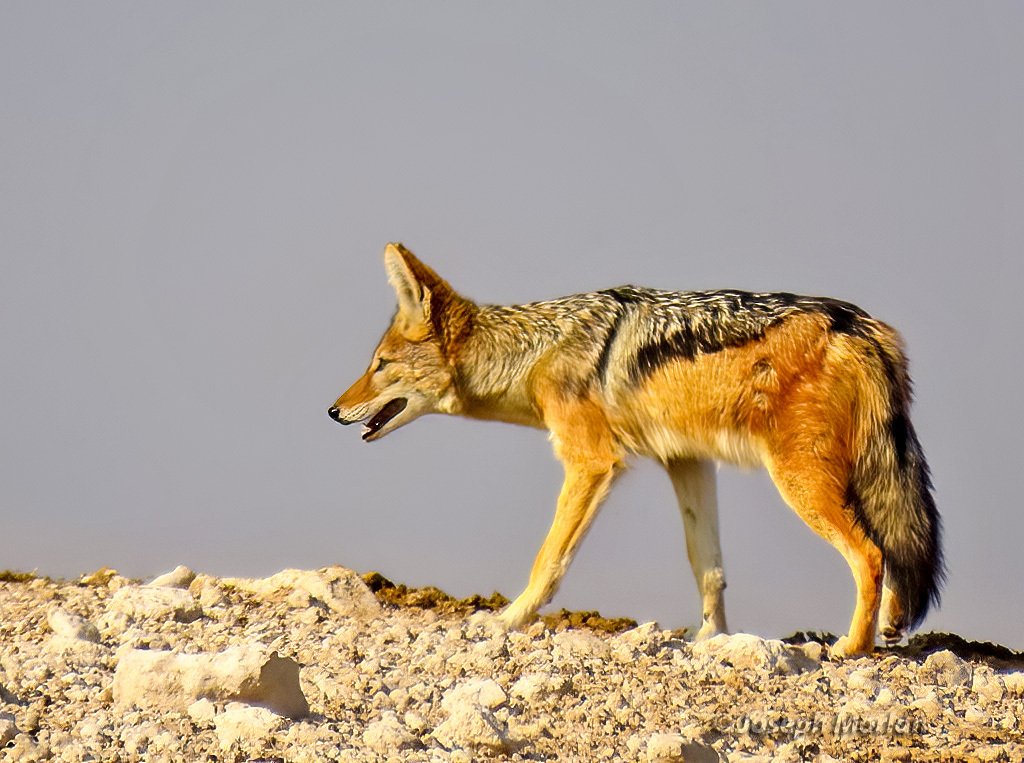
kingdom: Animalia
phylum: Chordata
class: Mammalia
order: Carnivora
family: Canidae
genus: Lupulella
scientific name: Lupulella
